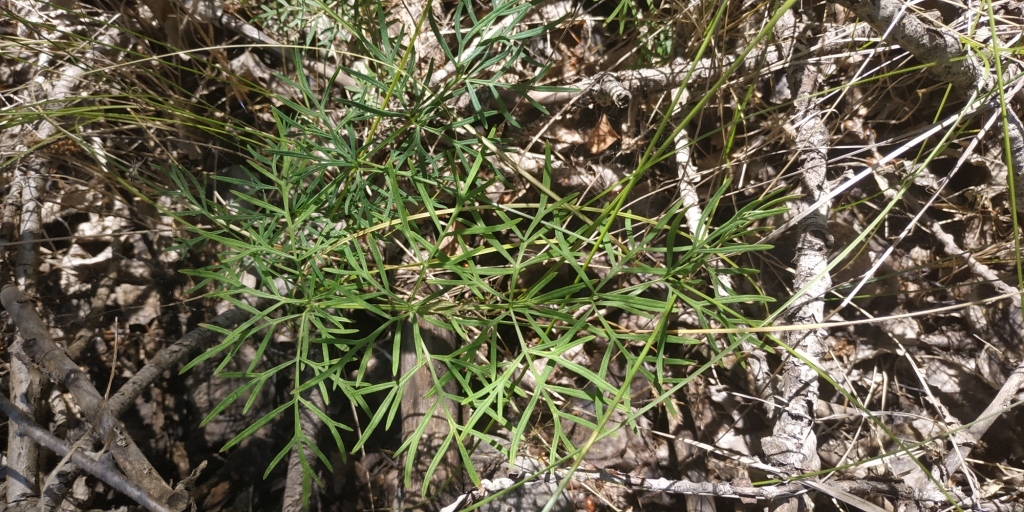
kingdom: Plantae
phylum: Tracheophyta
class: Magnoliopsida
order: Apiales
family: Apiaceae
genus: Kadenia
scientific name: Kadenia dubia
